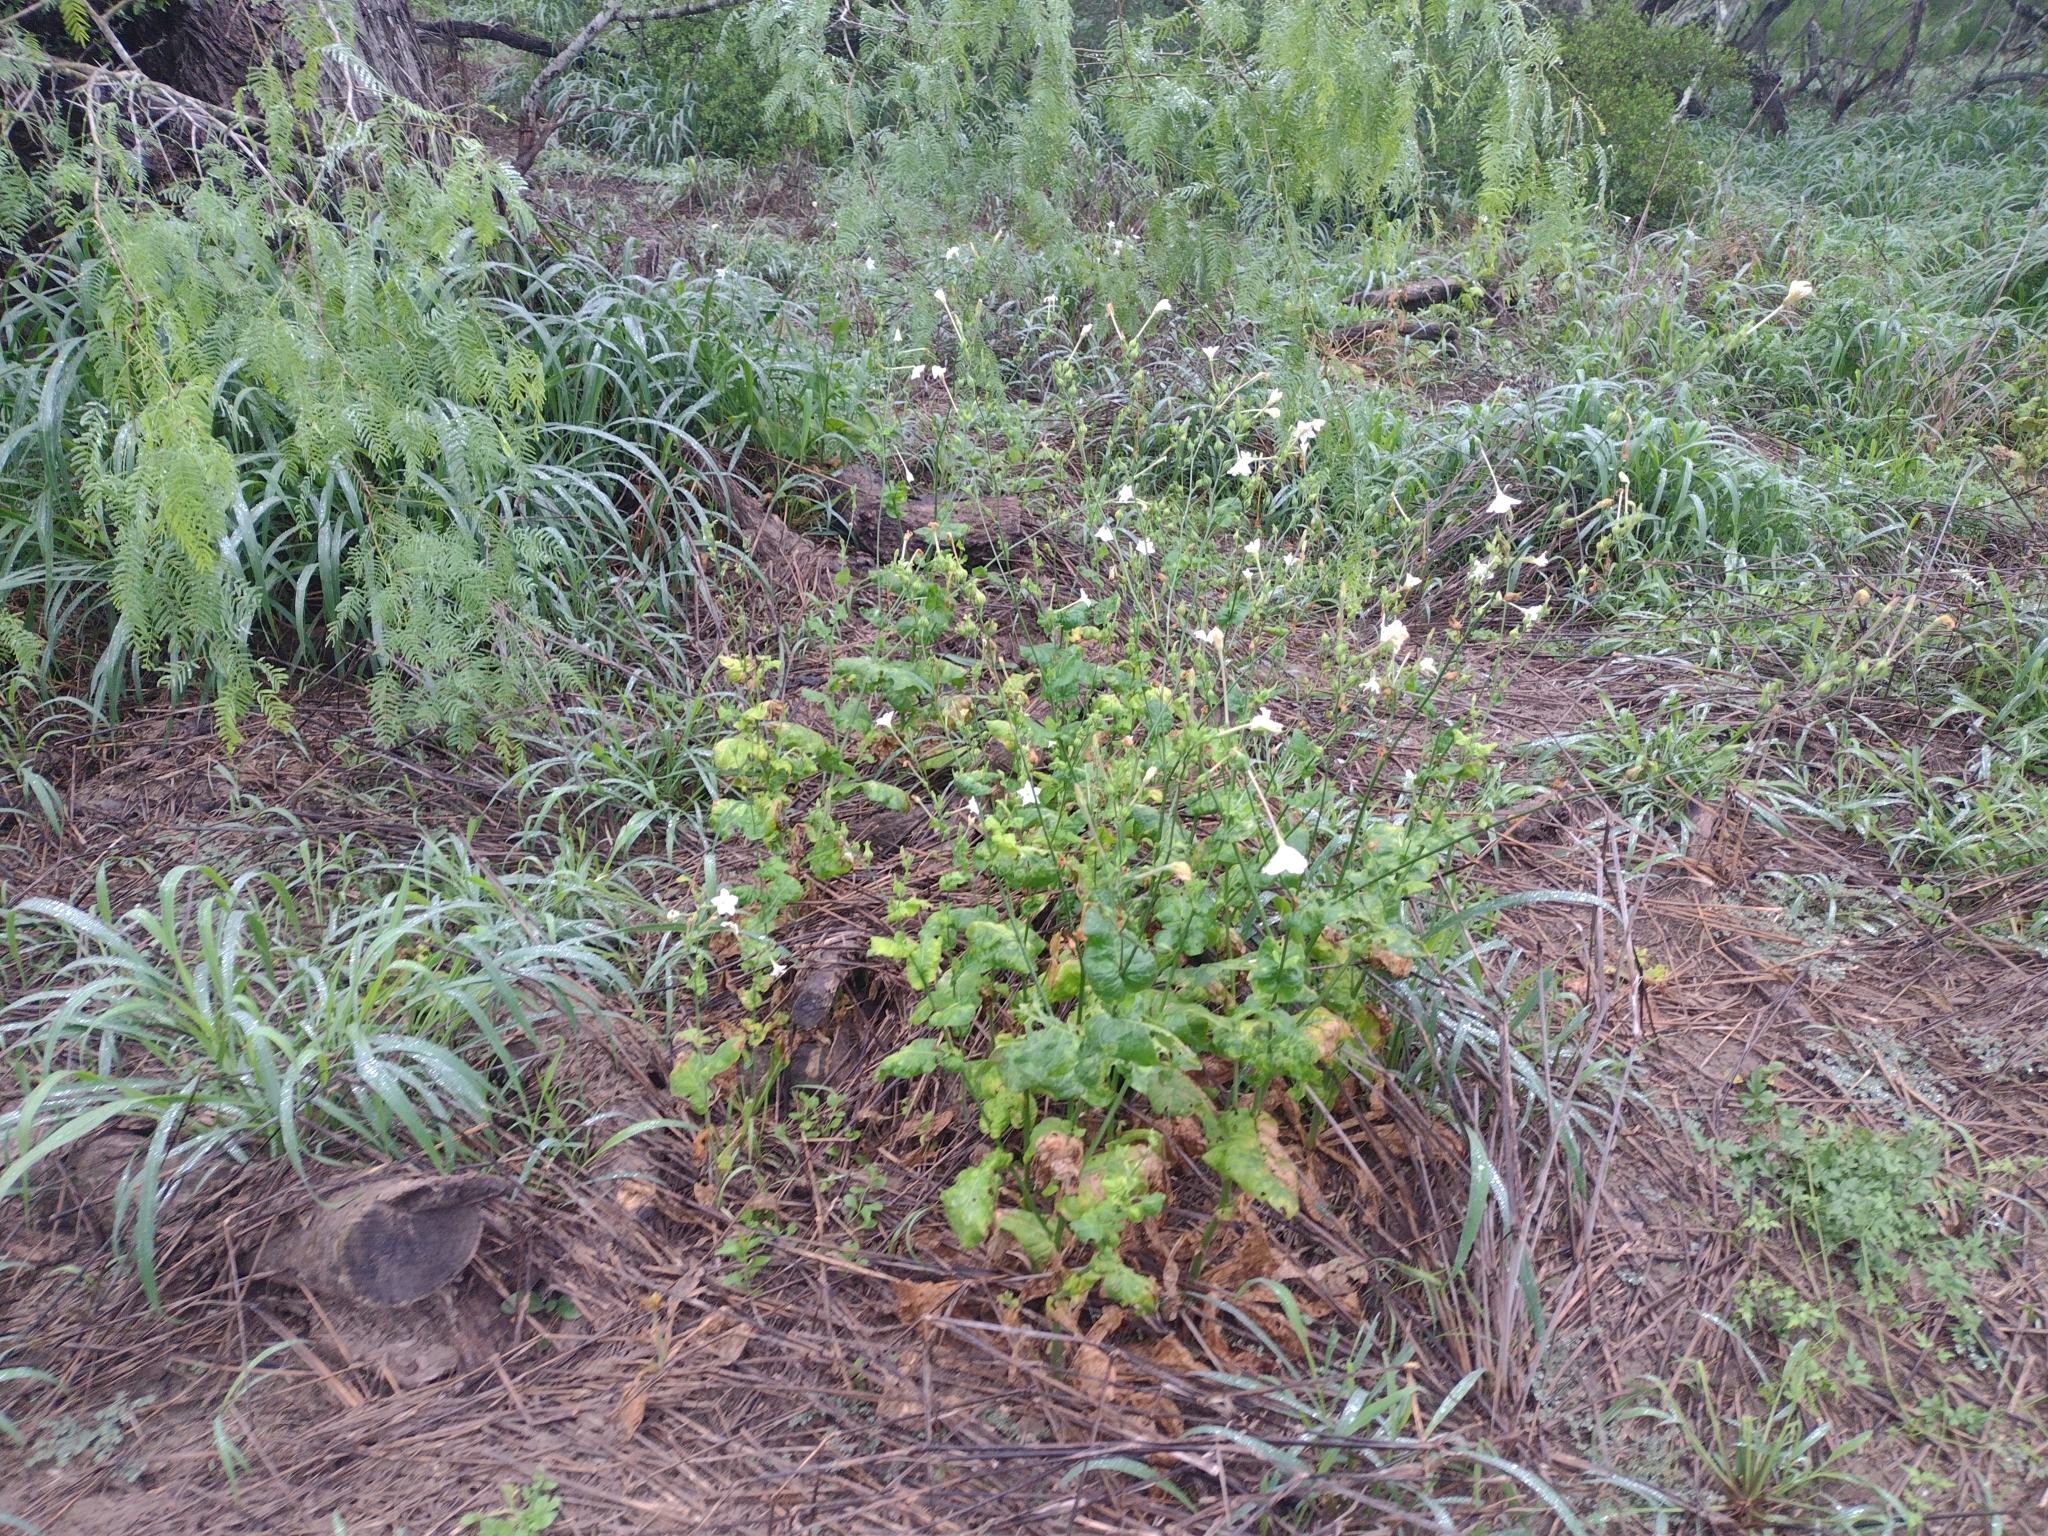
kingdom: Plantae
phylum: Tracheophyta
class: Magnoliopsida
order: Solanales
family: Solanaceae
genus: Nicotiana
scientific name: Nicotiana repanda
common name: Fiddle-leaf tobacco
